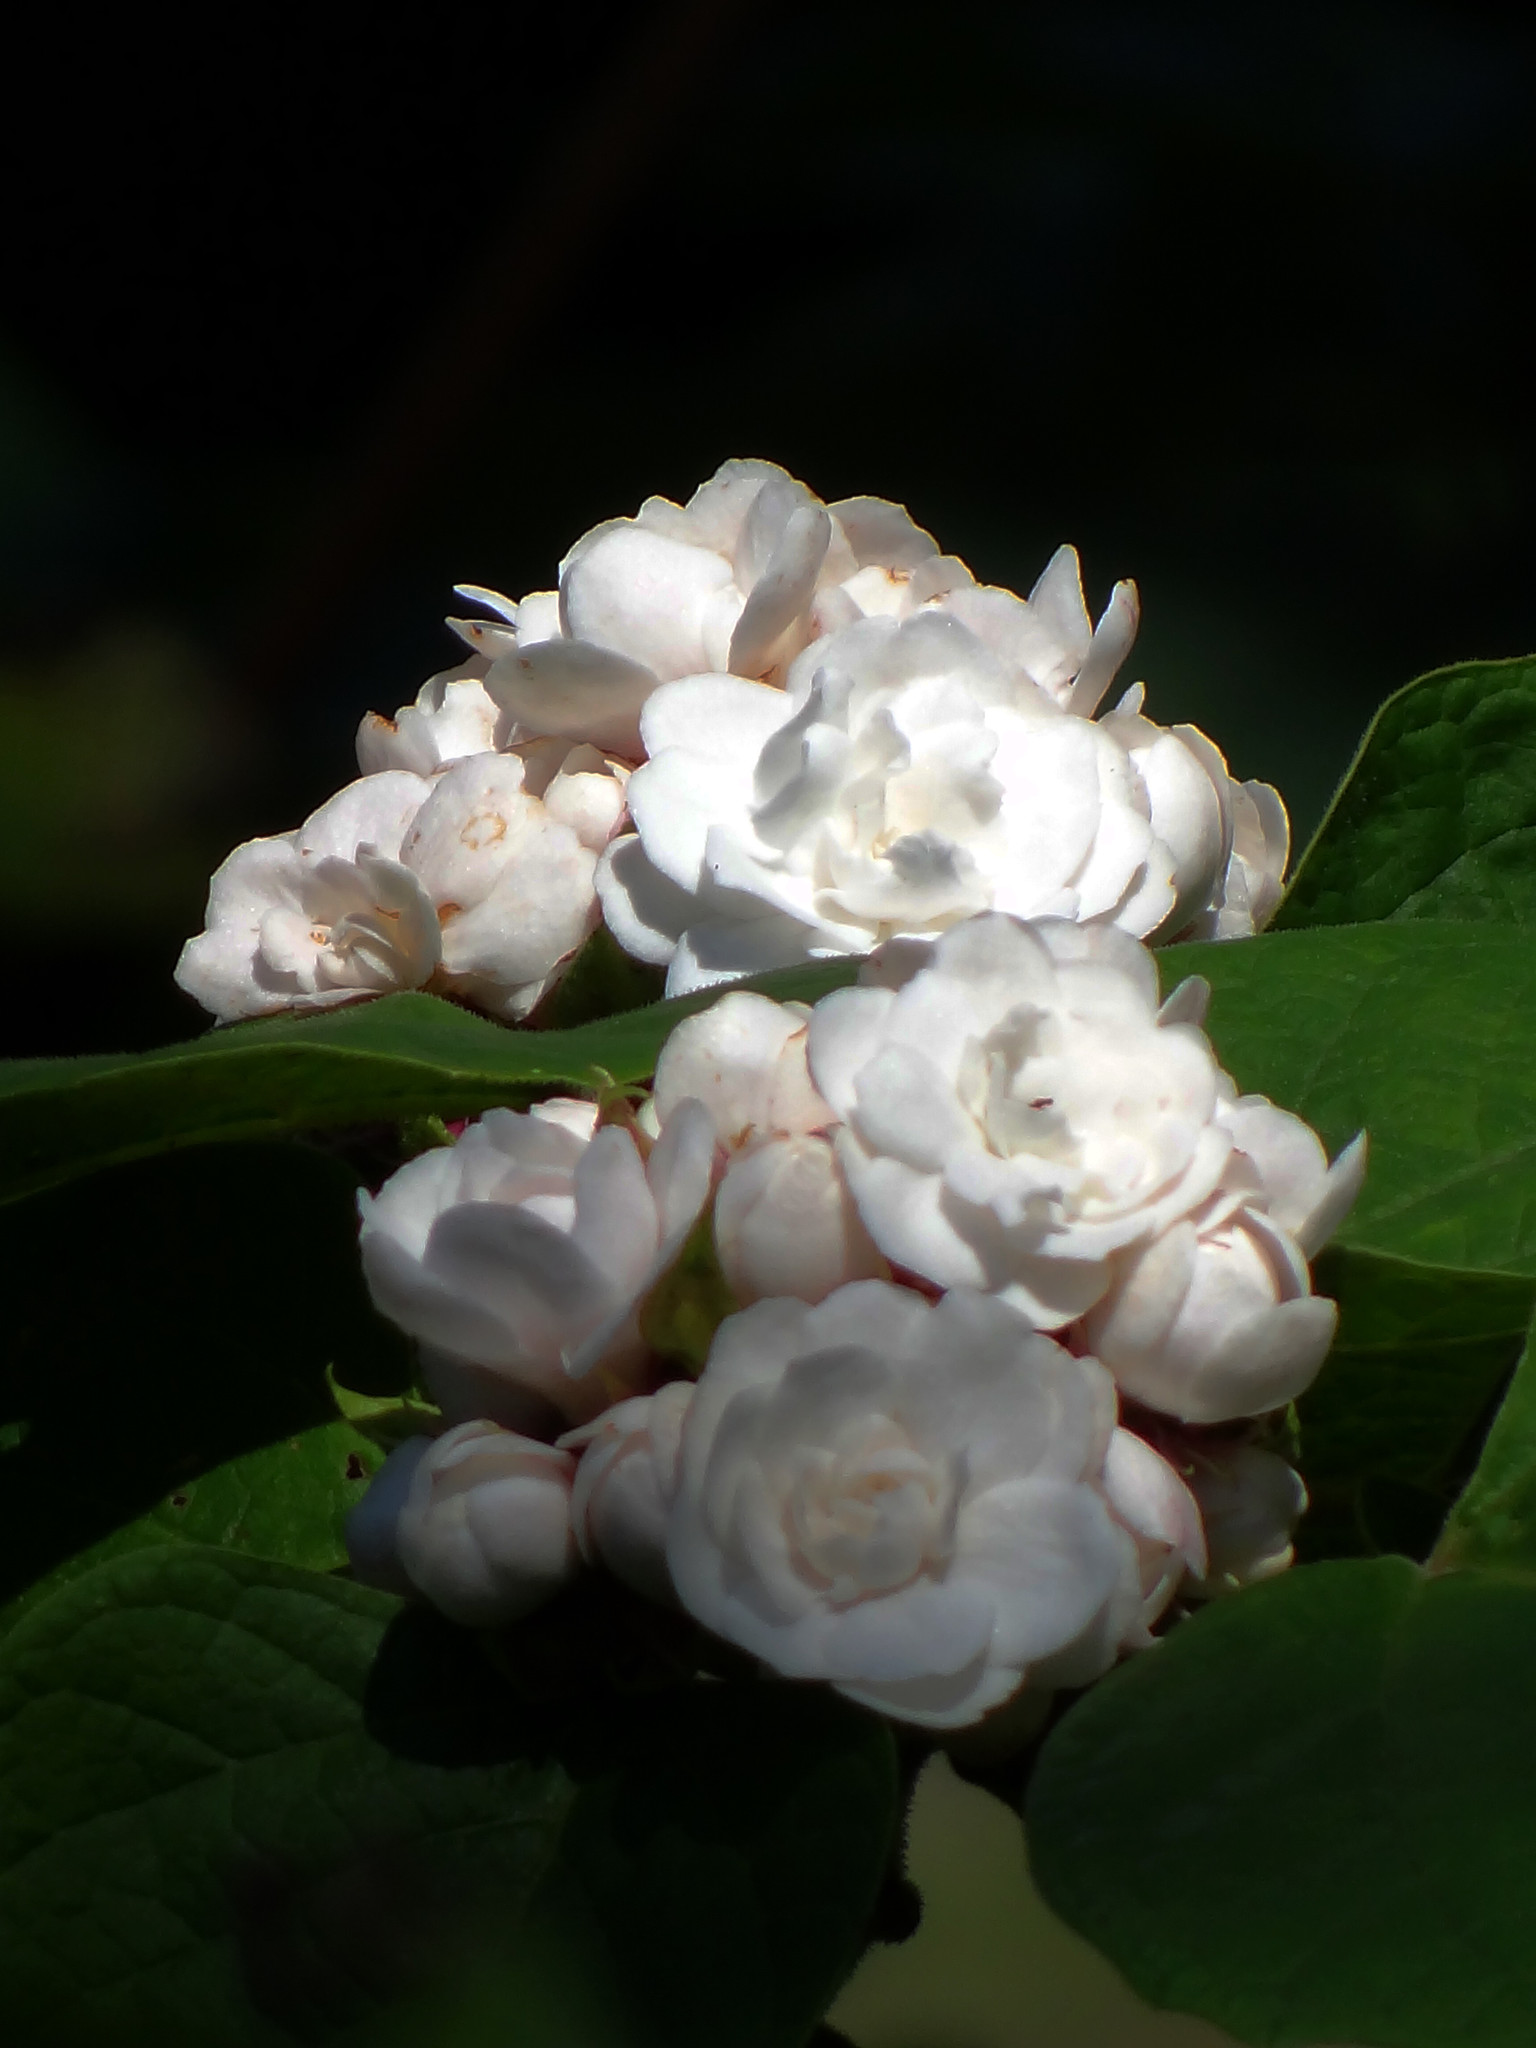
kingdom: Plantae
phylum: Tracheophyta
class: Magnoliopsida
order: Lamiales
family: Lamiaceae
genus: Clerodendrum
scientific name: Clerodendrum chinense
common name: Stickbush
